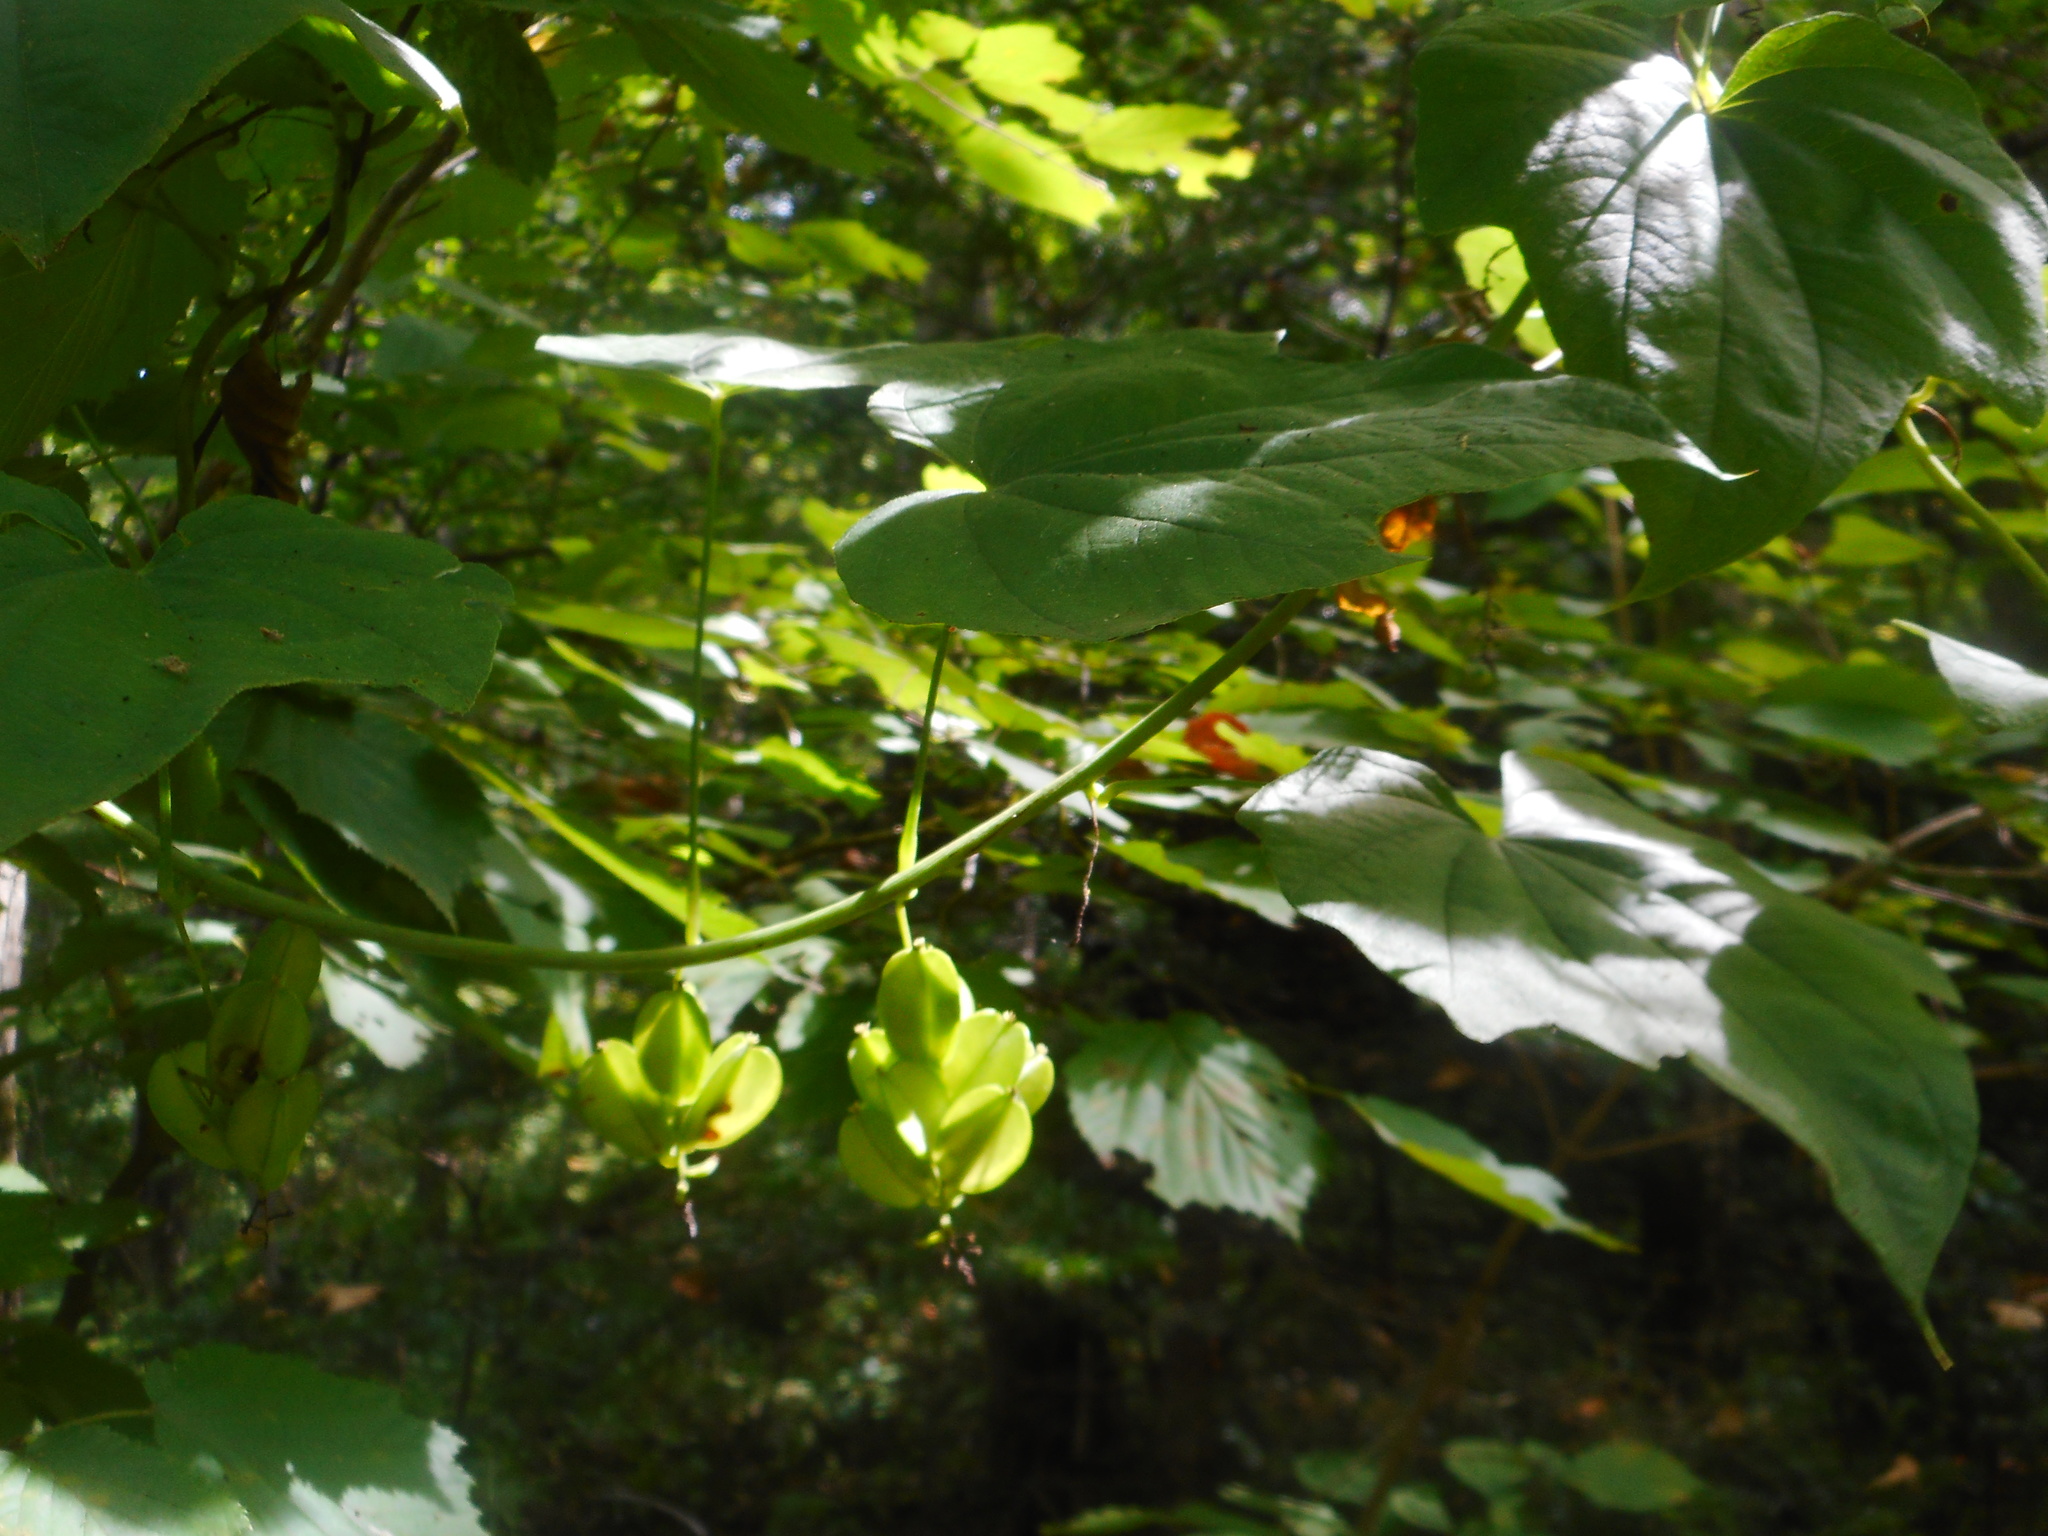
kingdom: Plantae
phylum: Tracheophyta
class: Liliopsida
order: Dioscoreales
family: Dioscoreaceae
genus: Dioscorea
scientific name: Dioscorea nipponica
